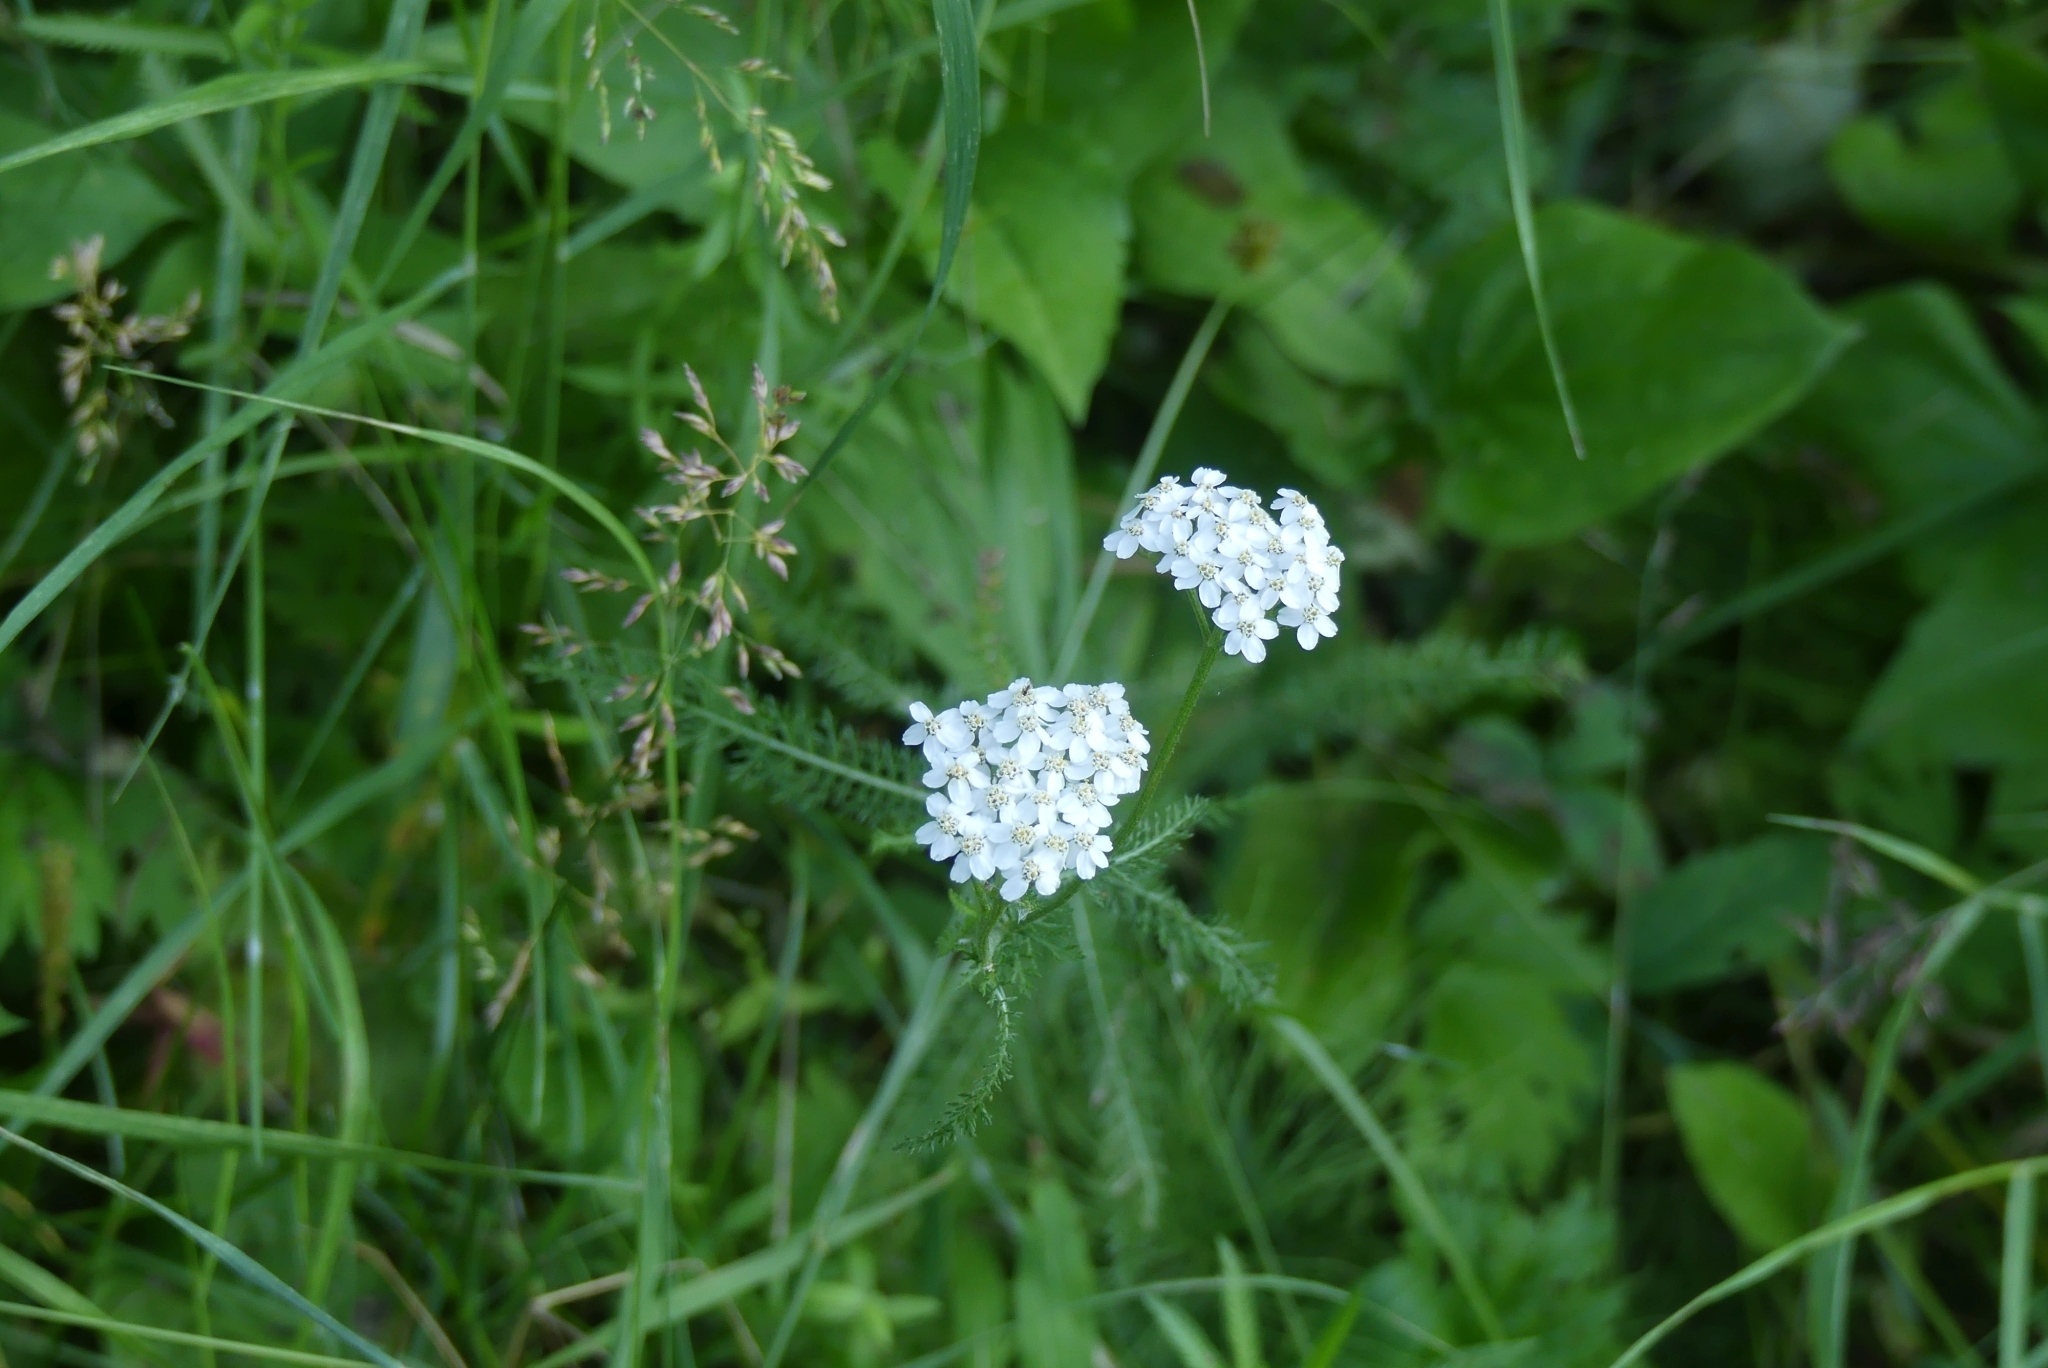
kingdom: Plantae
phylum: Tracheophyta
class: Magnoliopsida
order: Asterales
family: Asteraceae
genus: Achillea
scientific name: Achillea millefolium
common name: Yarrow
